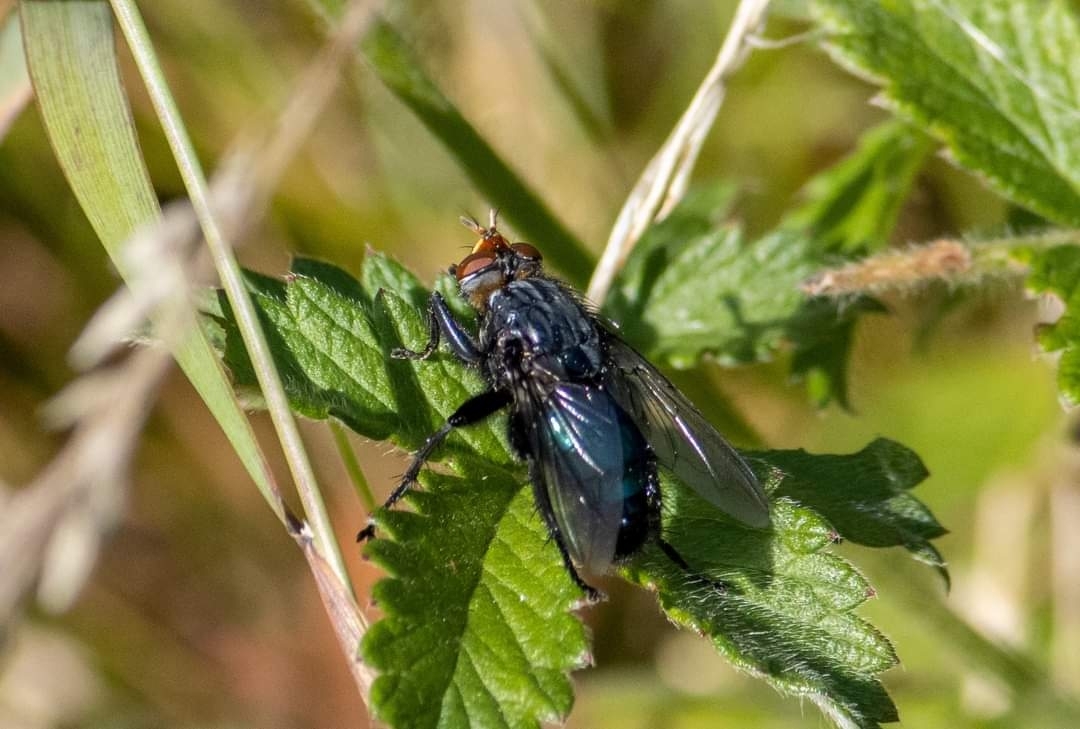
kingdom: Animalia
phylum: Arthropoda
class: Insecta
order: Diptera
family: Calliphoridae
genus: Cynomya
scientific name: Cynomya mortuorum
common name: Bluebottle blow fly
